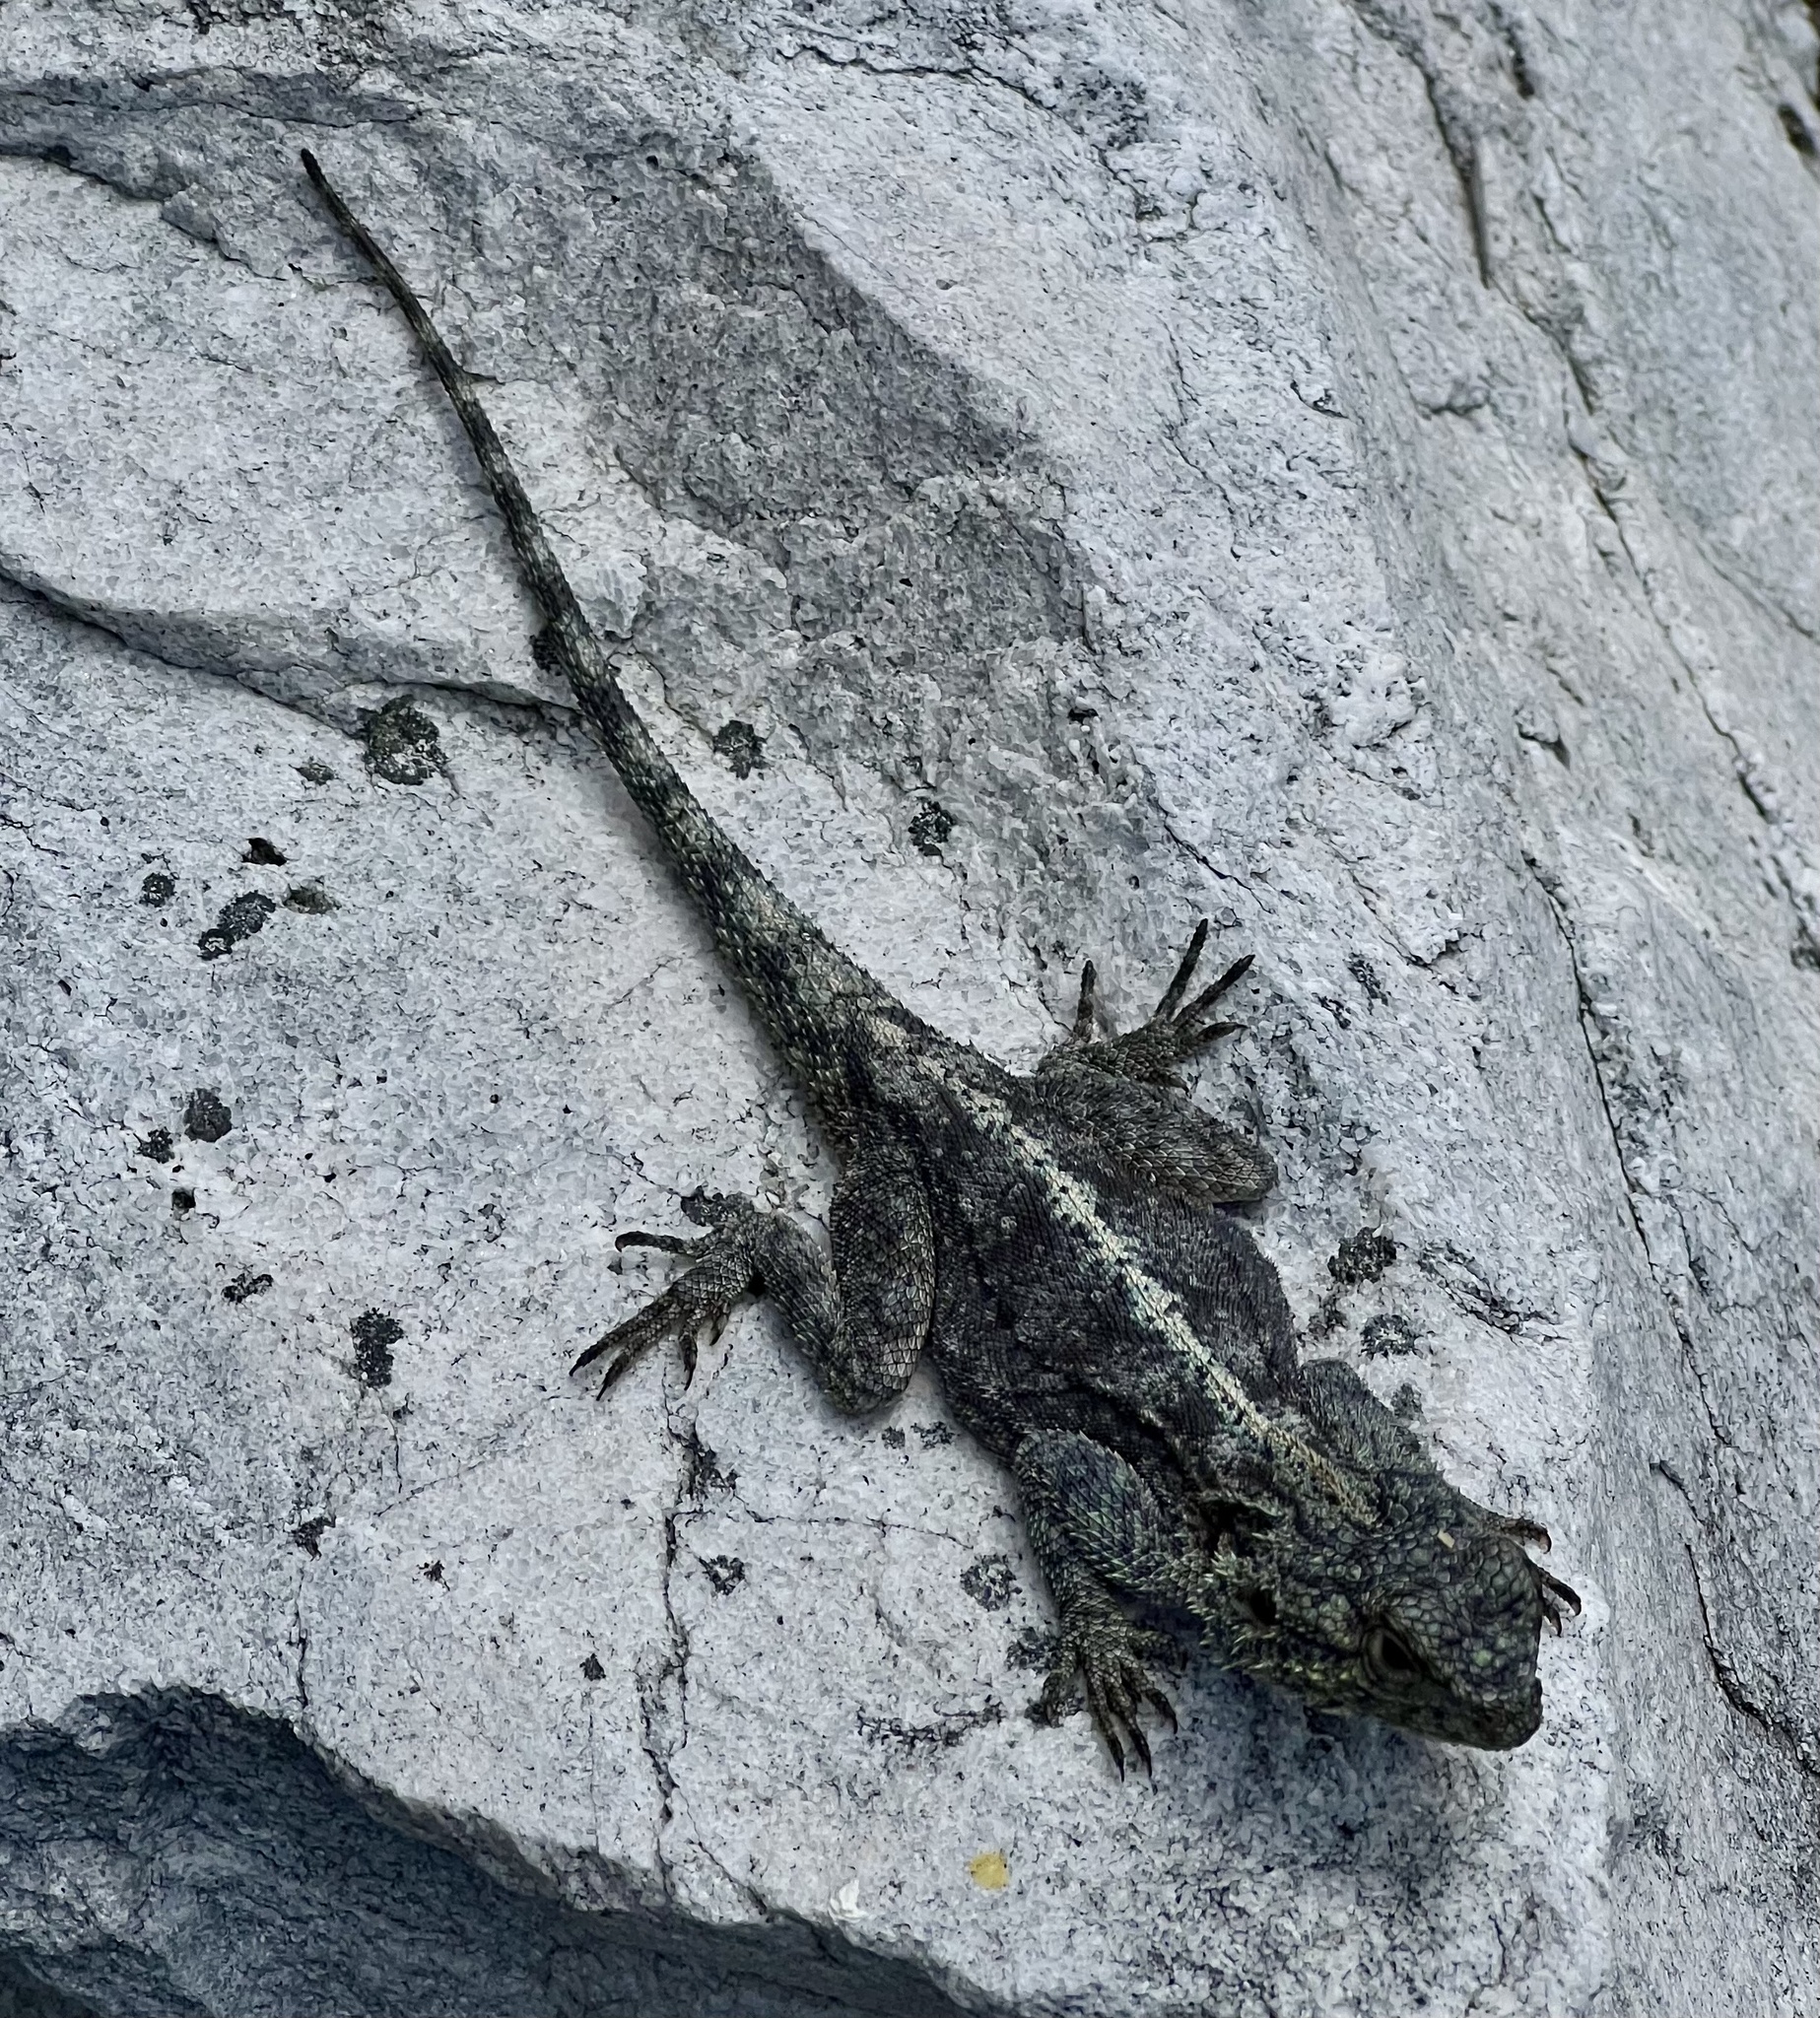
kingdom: Animalia
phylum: Chordata
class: Squamata
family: Agamidae
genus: Agama
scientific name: Agama atra
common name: Southern african rock agama
